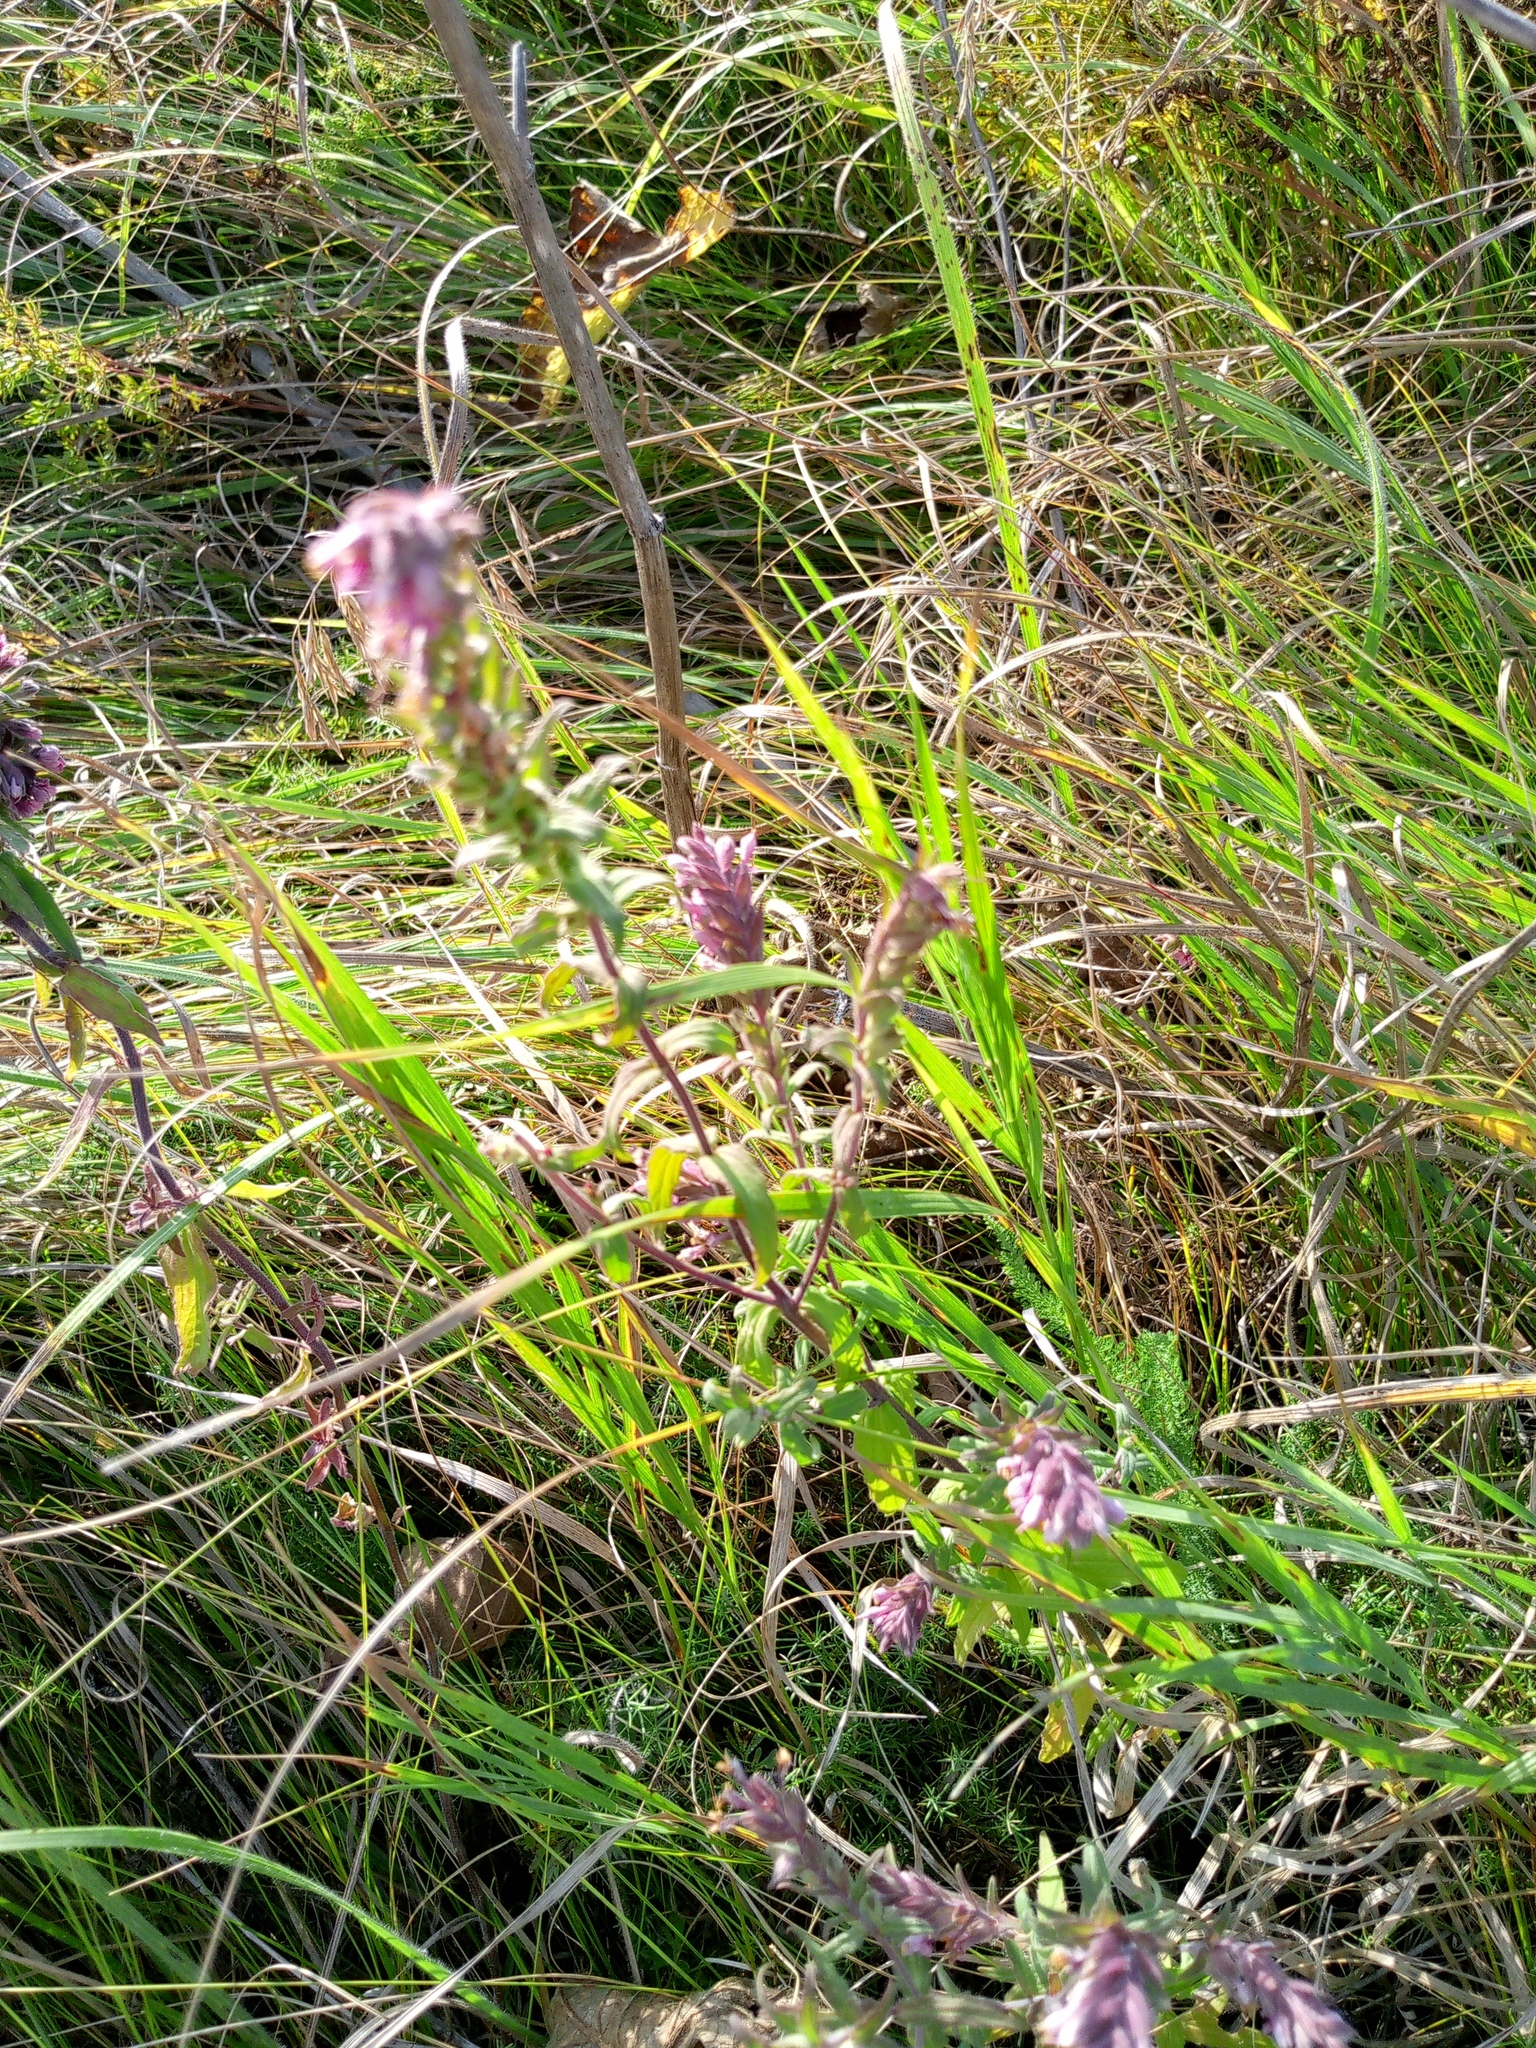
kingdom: Plantae
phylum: Tracheophyta
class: Magnoliopsida
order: Lamiales
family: Orobanchaceae
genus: Odontites
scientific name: Odontites vulgaris
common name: Broomrape
